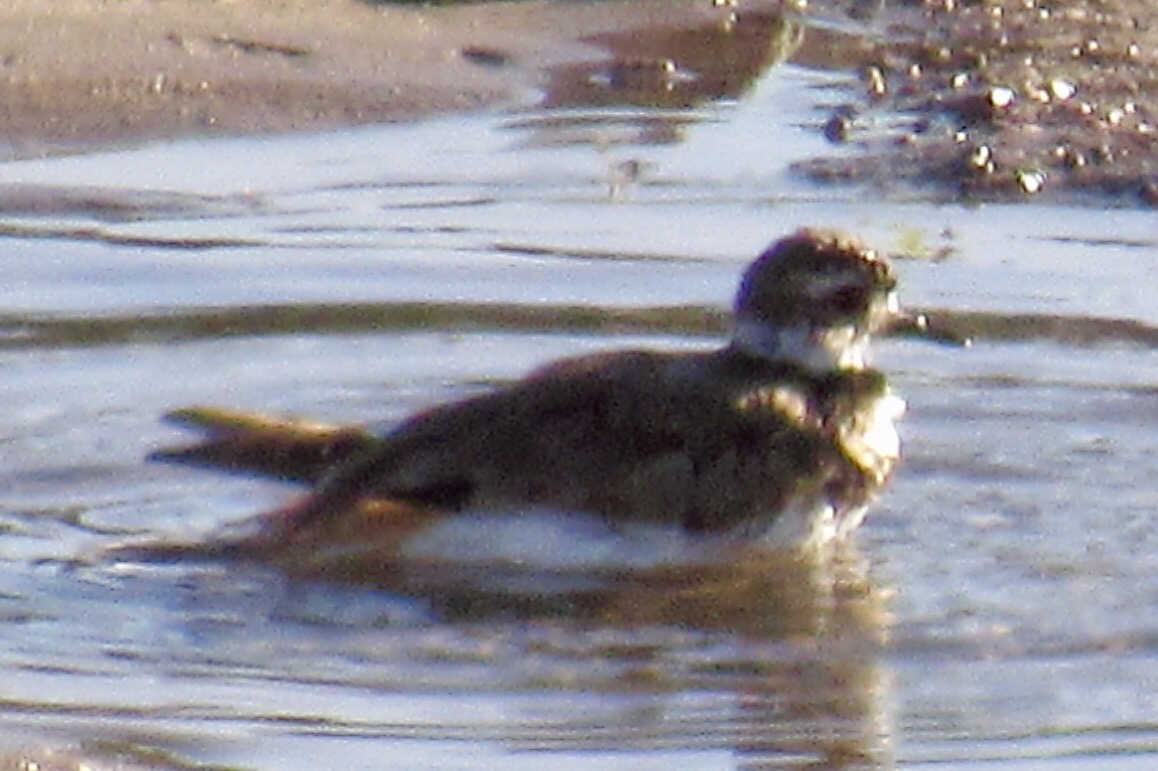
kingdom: Animalia
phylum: Chordata
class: Aves
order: Charadriiformes
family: Charadriidae
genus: Charadrius
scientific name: Charadrius vociferus
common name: Killdeer
